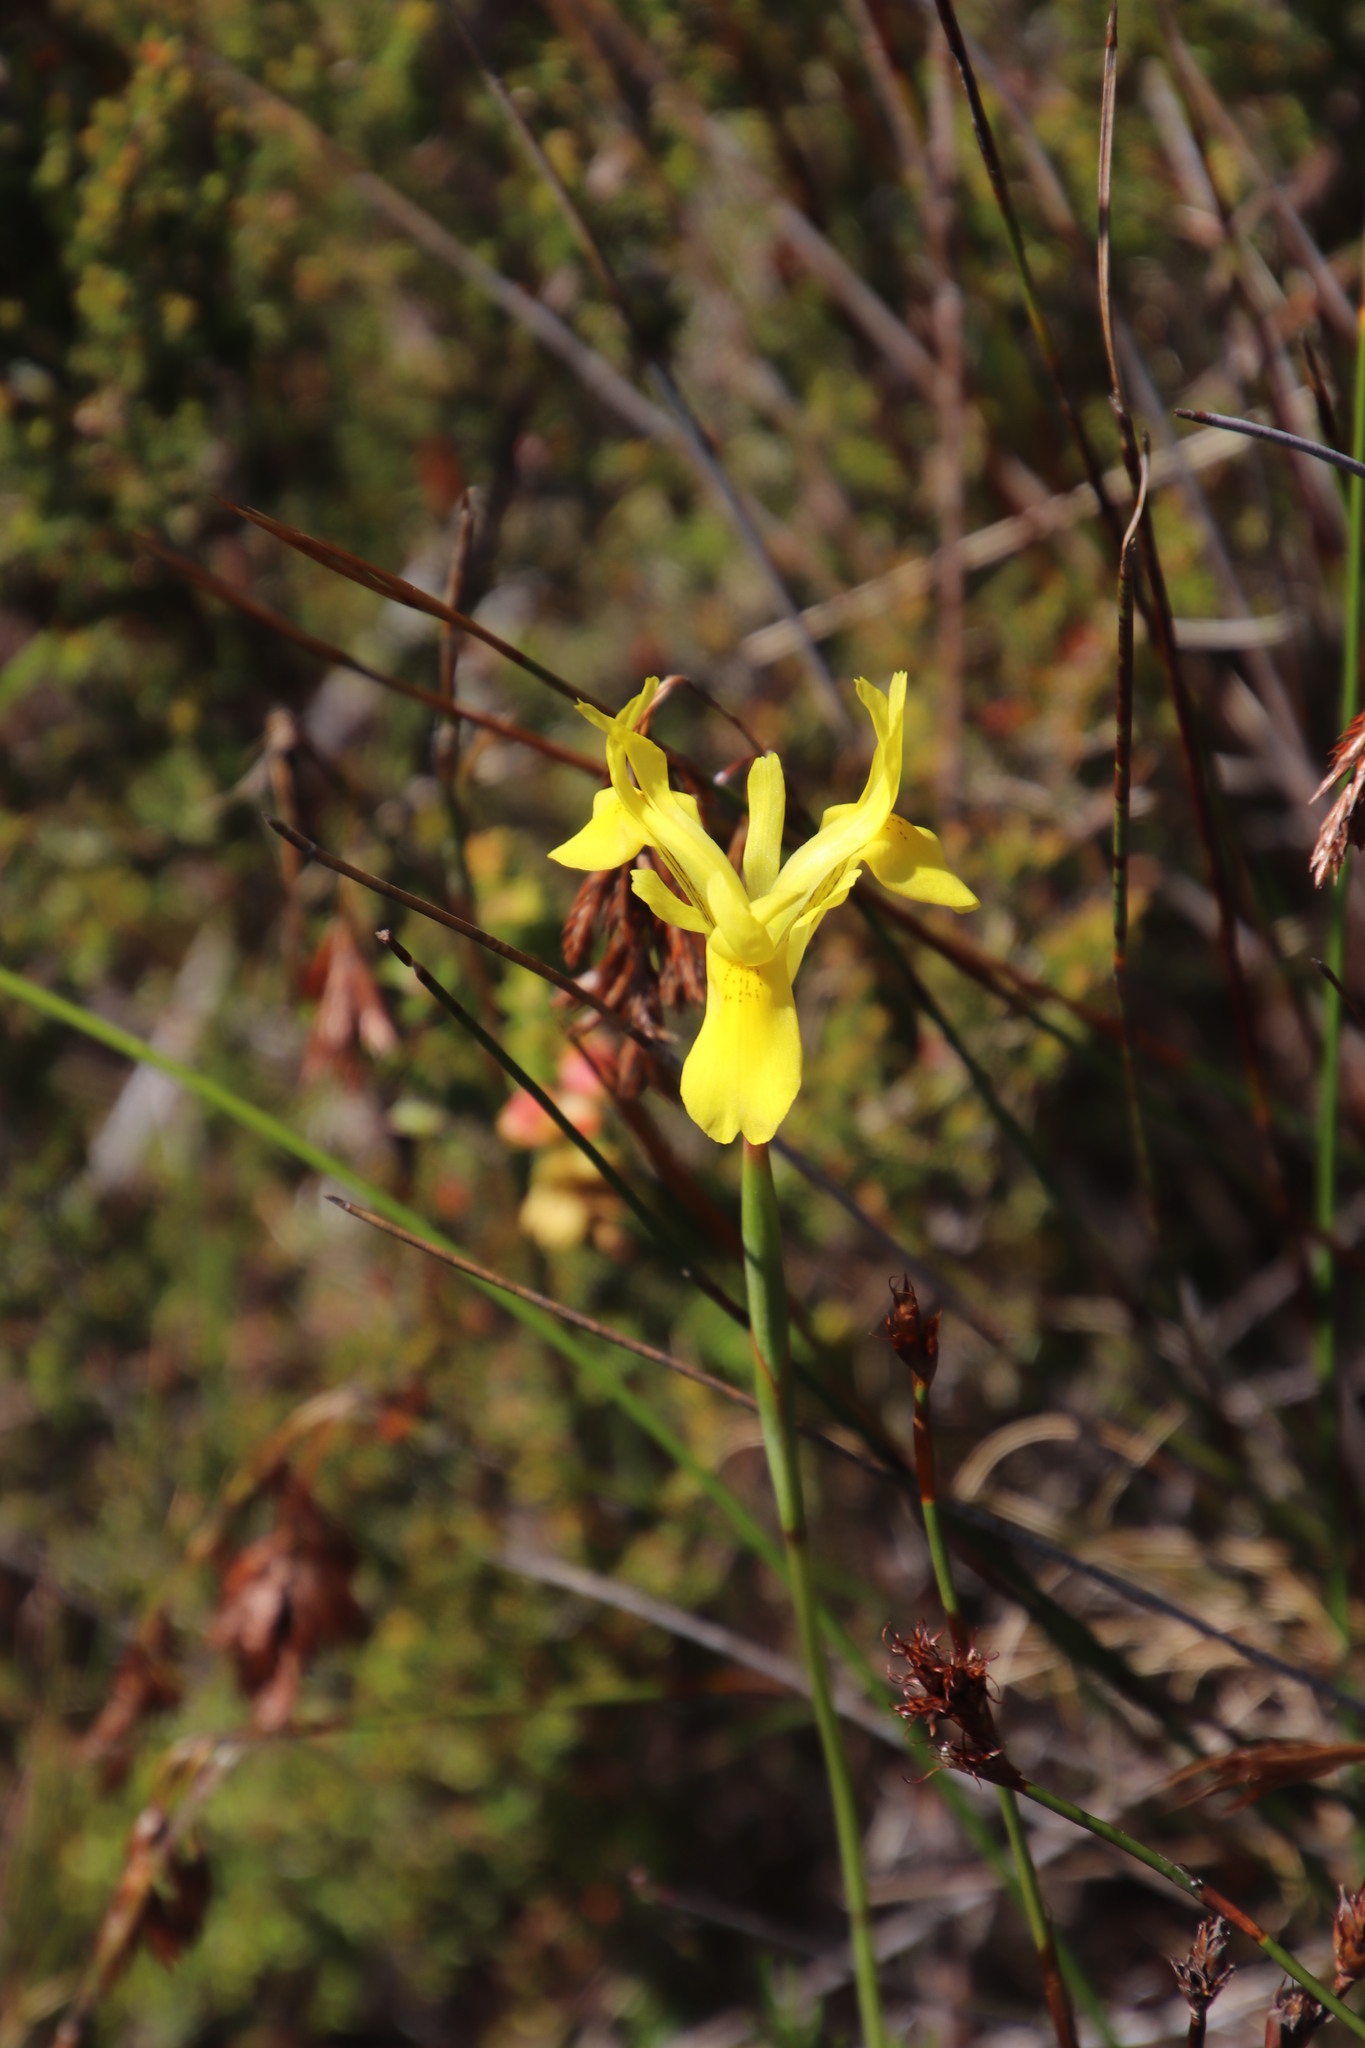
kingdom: Plantae
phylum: Tracheophyta
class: Liliopsida
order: Asparagales
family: Iridaceae
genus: Moraea
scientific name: Moraea neglecta
